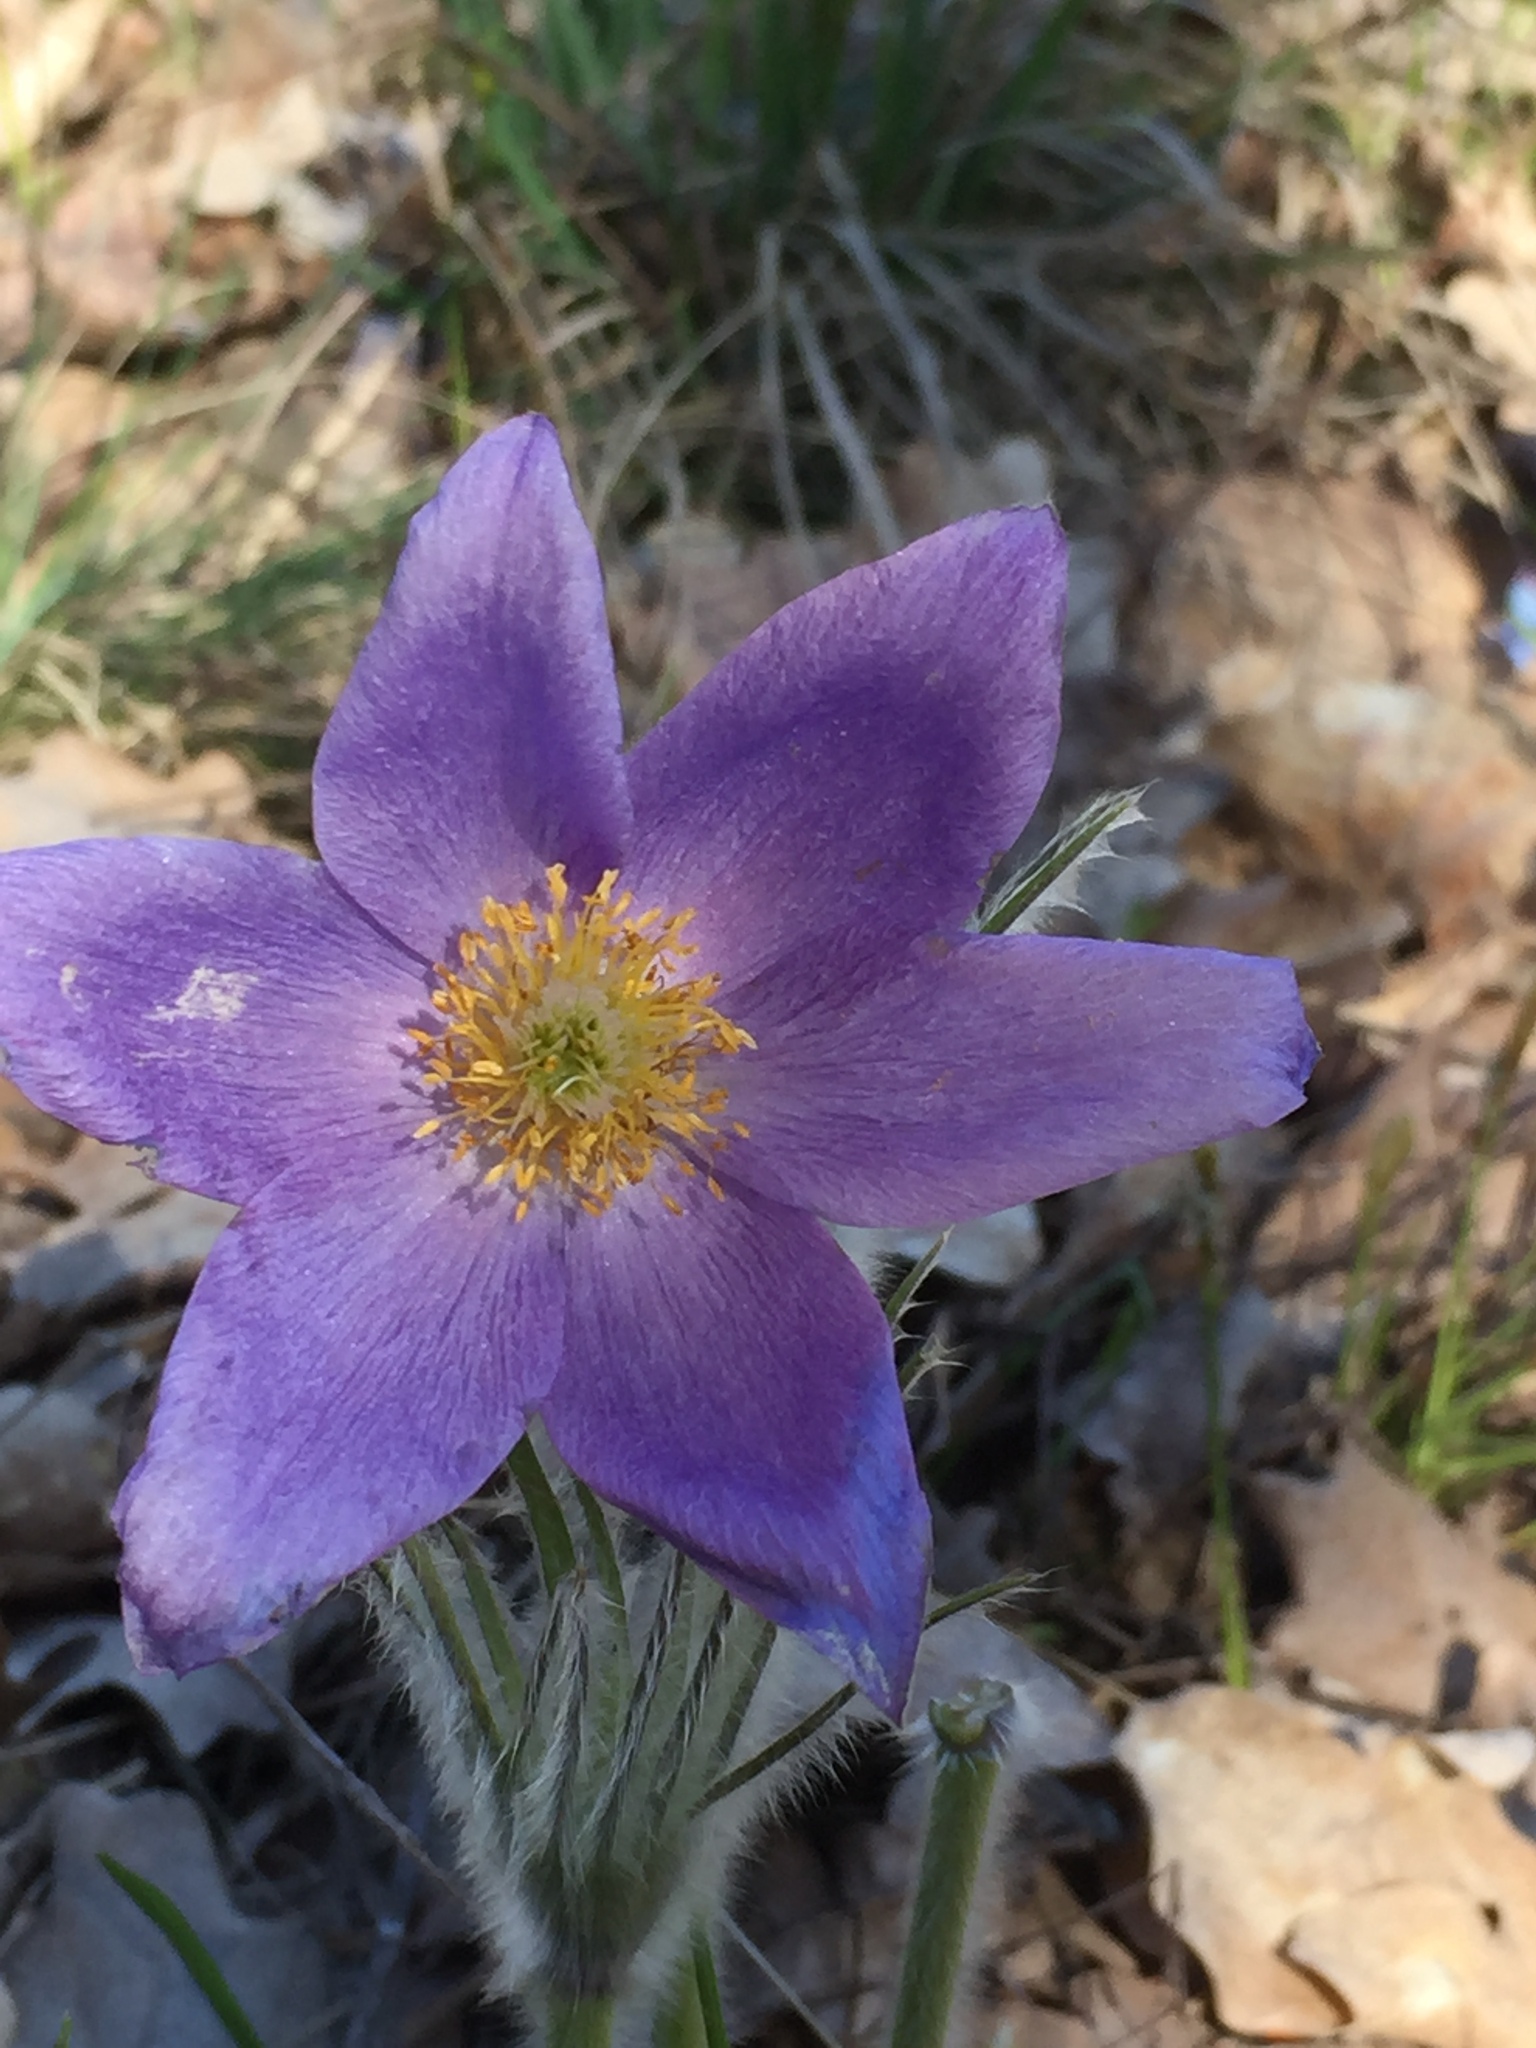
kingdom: Plantae
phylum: Tracheophyta
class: Magnoliopsida
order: Ranunculales
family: Ranunculaceae
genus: Pulsatilla
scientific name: Pulsatilla patens
